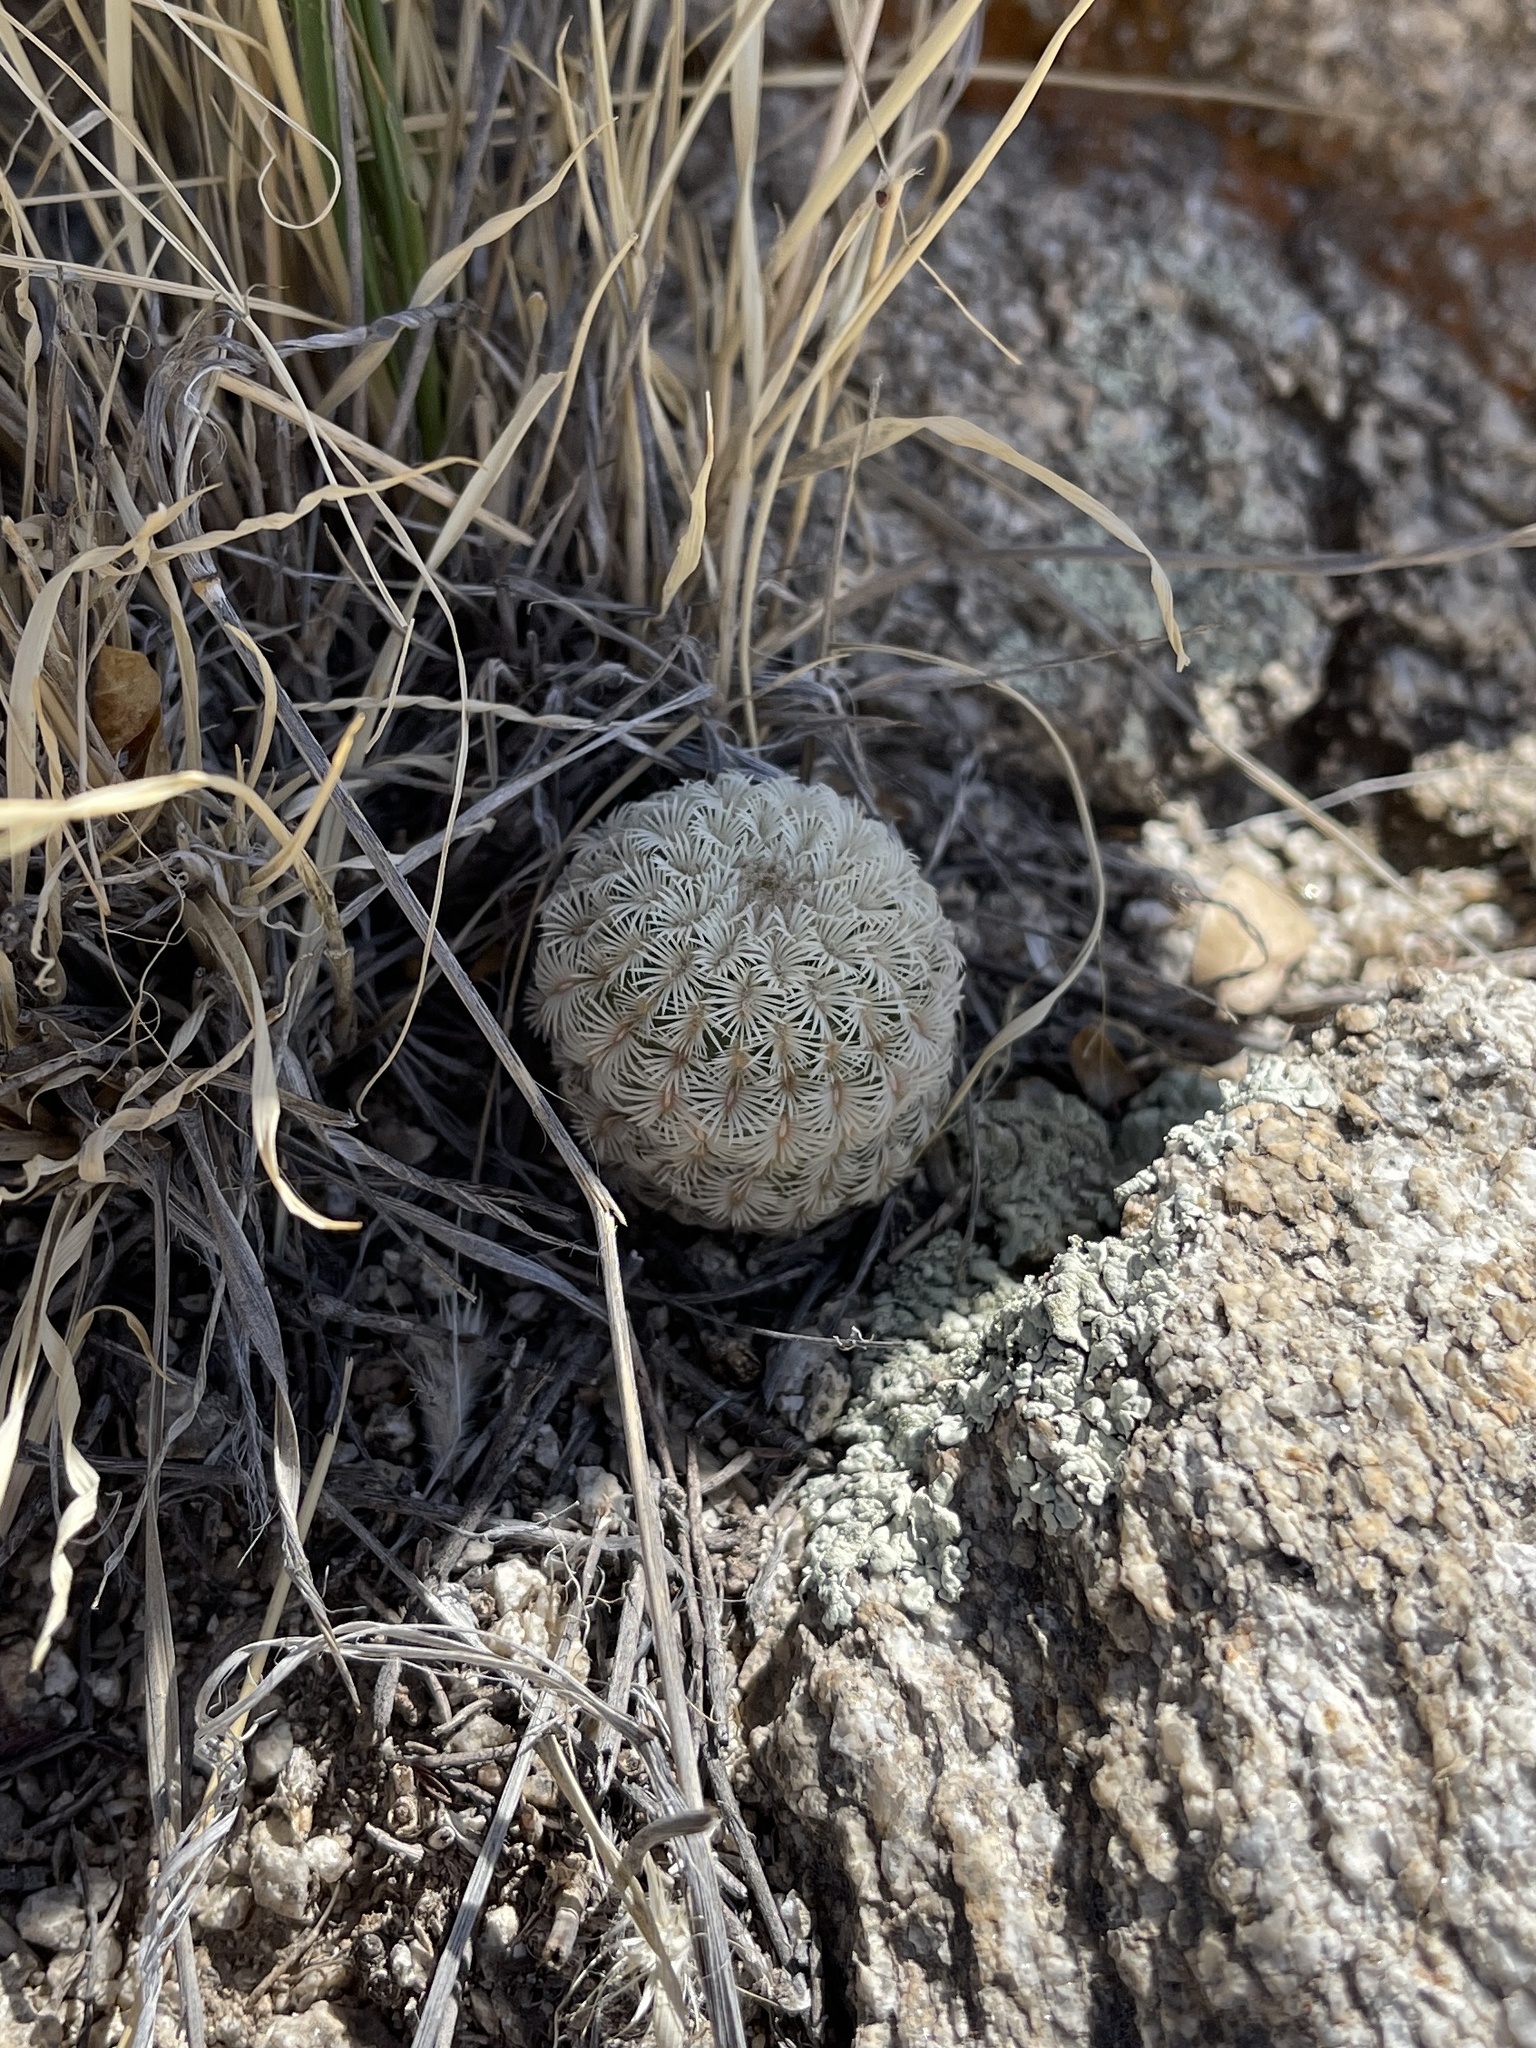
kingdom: Plantae
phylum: Tracheophyta
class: Magnoliopsida
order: Caryophyllales
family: Cactaceae
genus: Echinocereus
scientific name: Echinocereus rigidissimus
